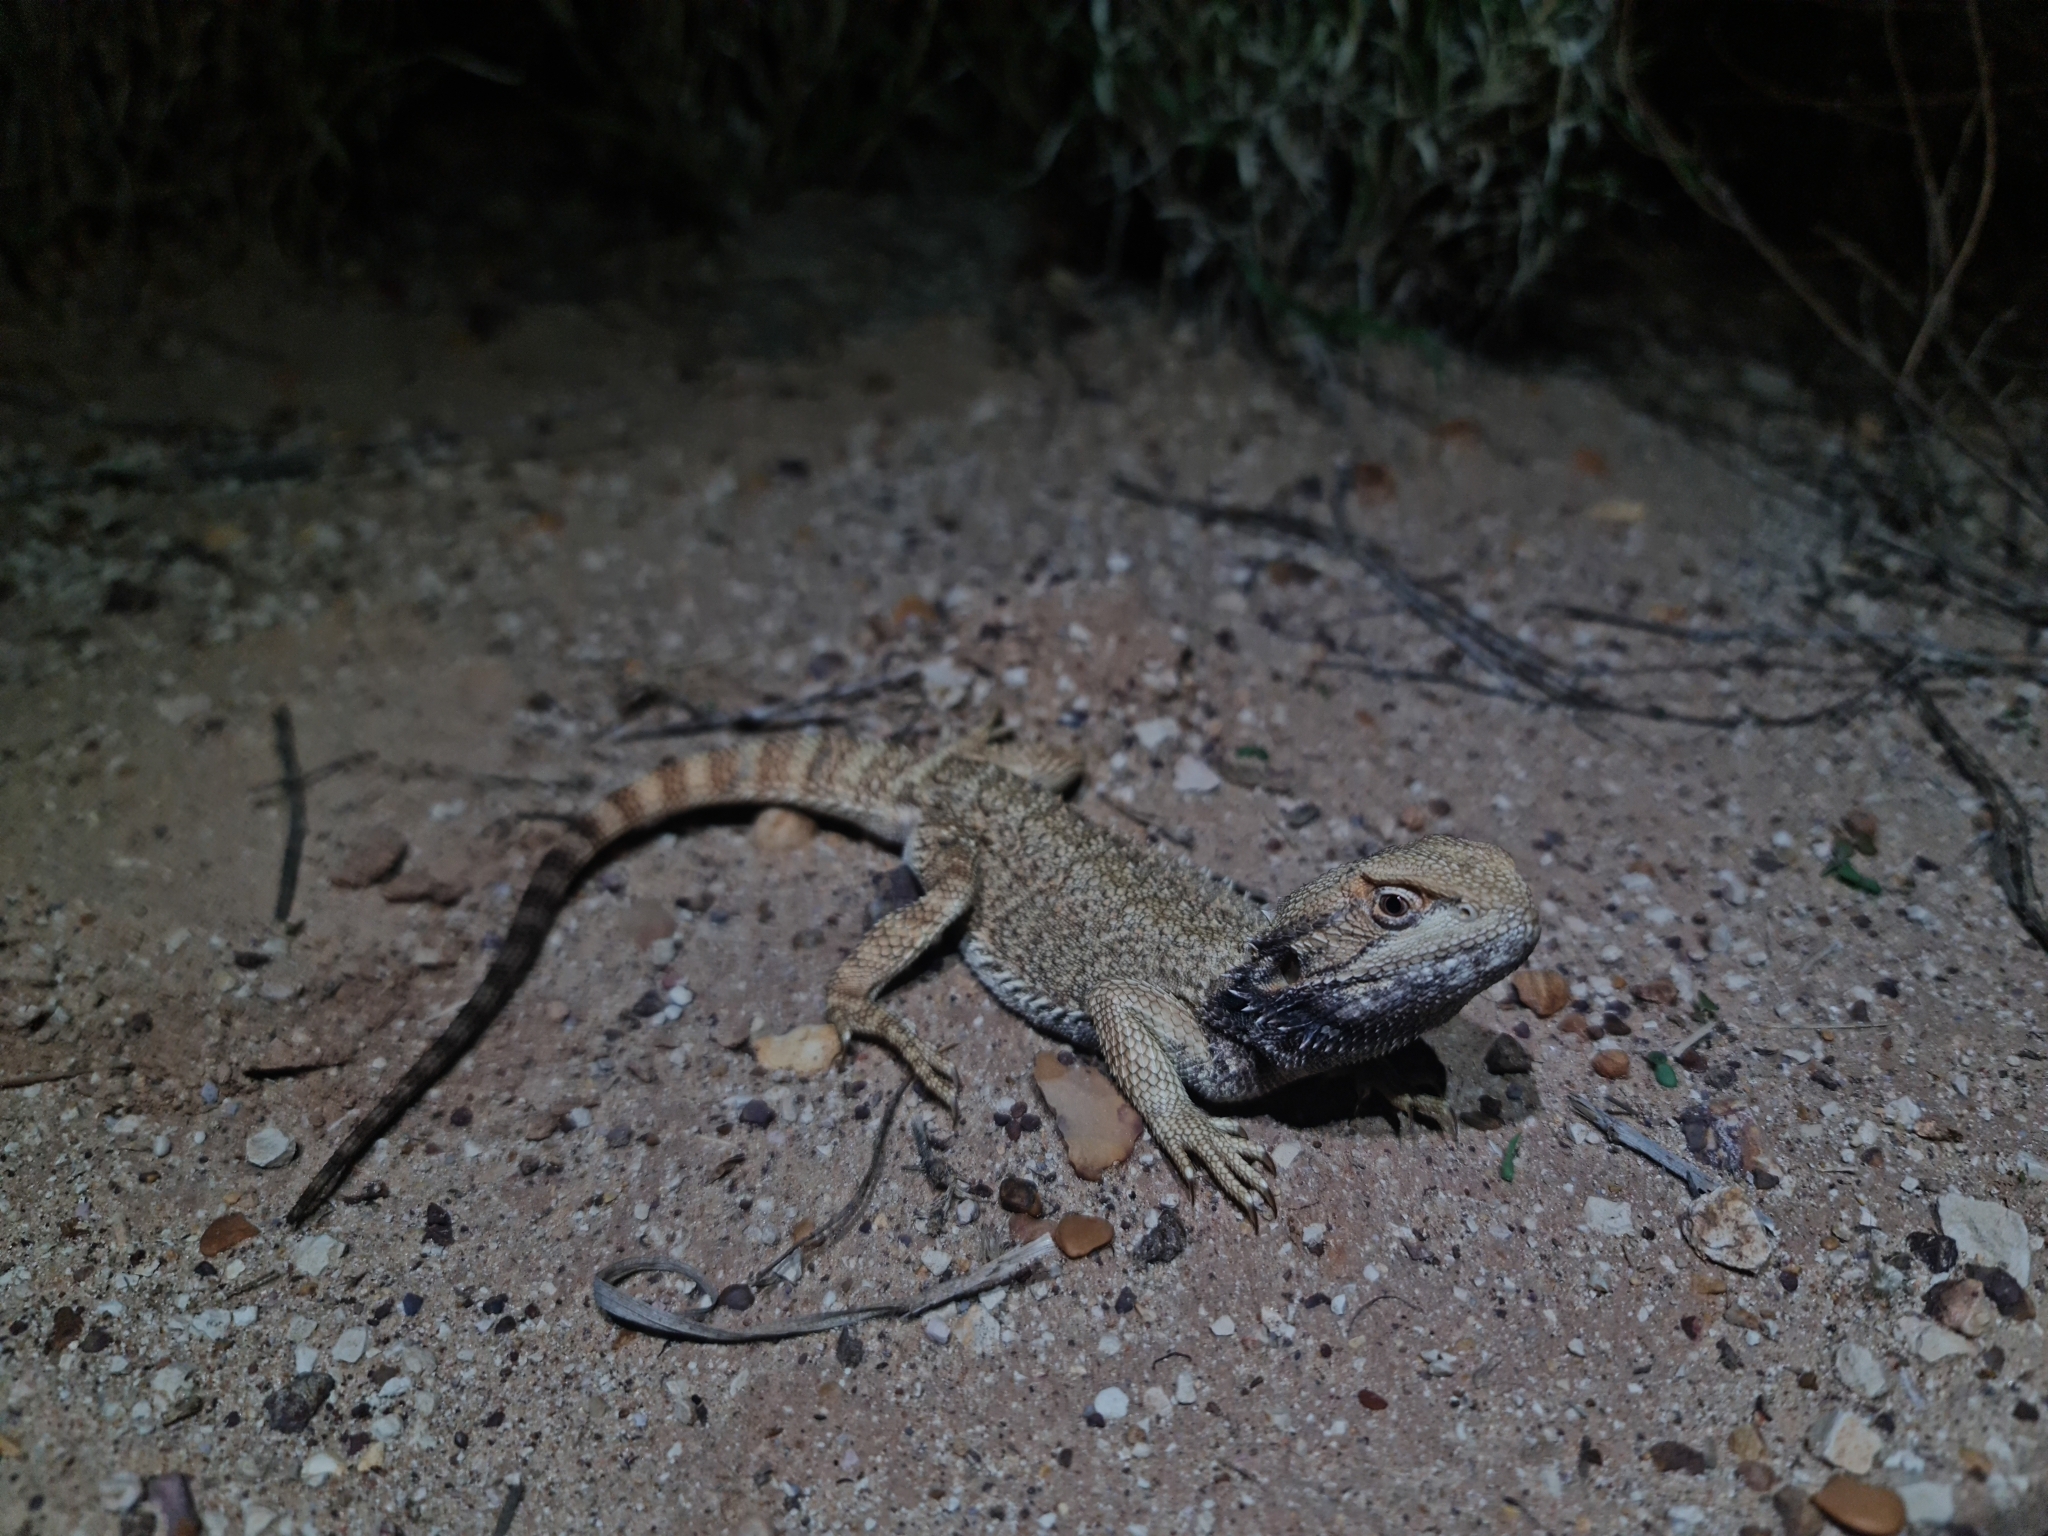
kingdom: Animalia
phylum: Chordata
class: Squamata
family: Agamidae
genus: Pogona
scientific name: Pogona henrylawsoni
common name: Black-soil bearded dragon
